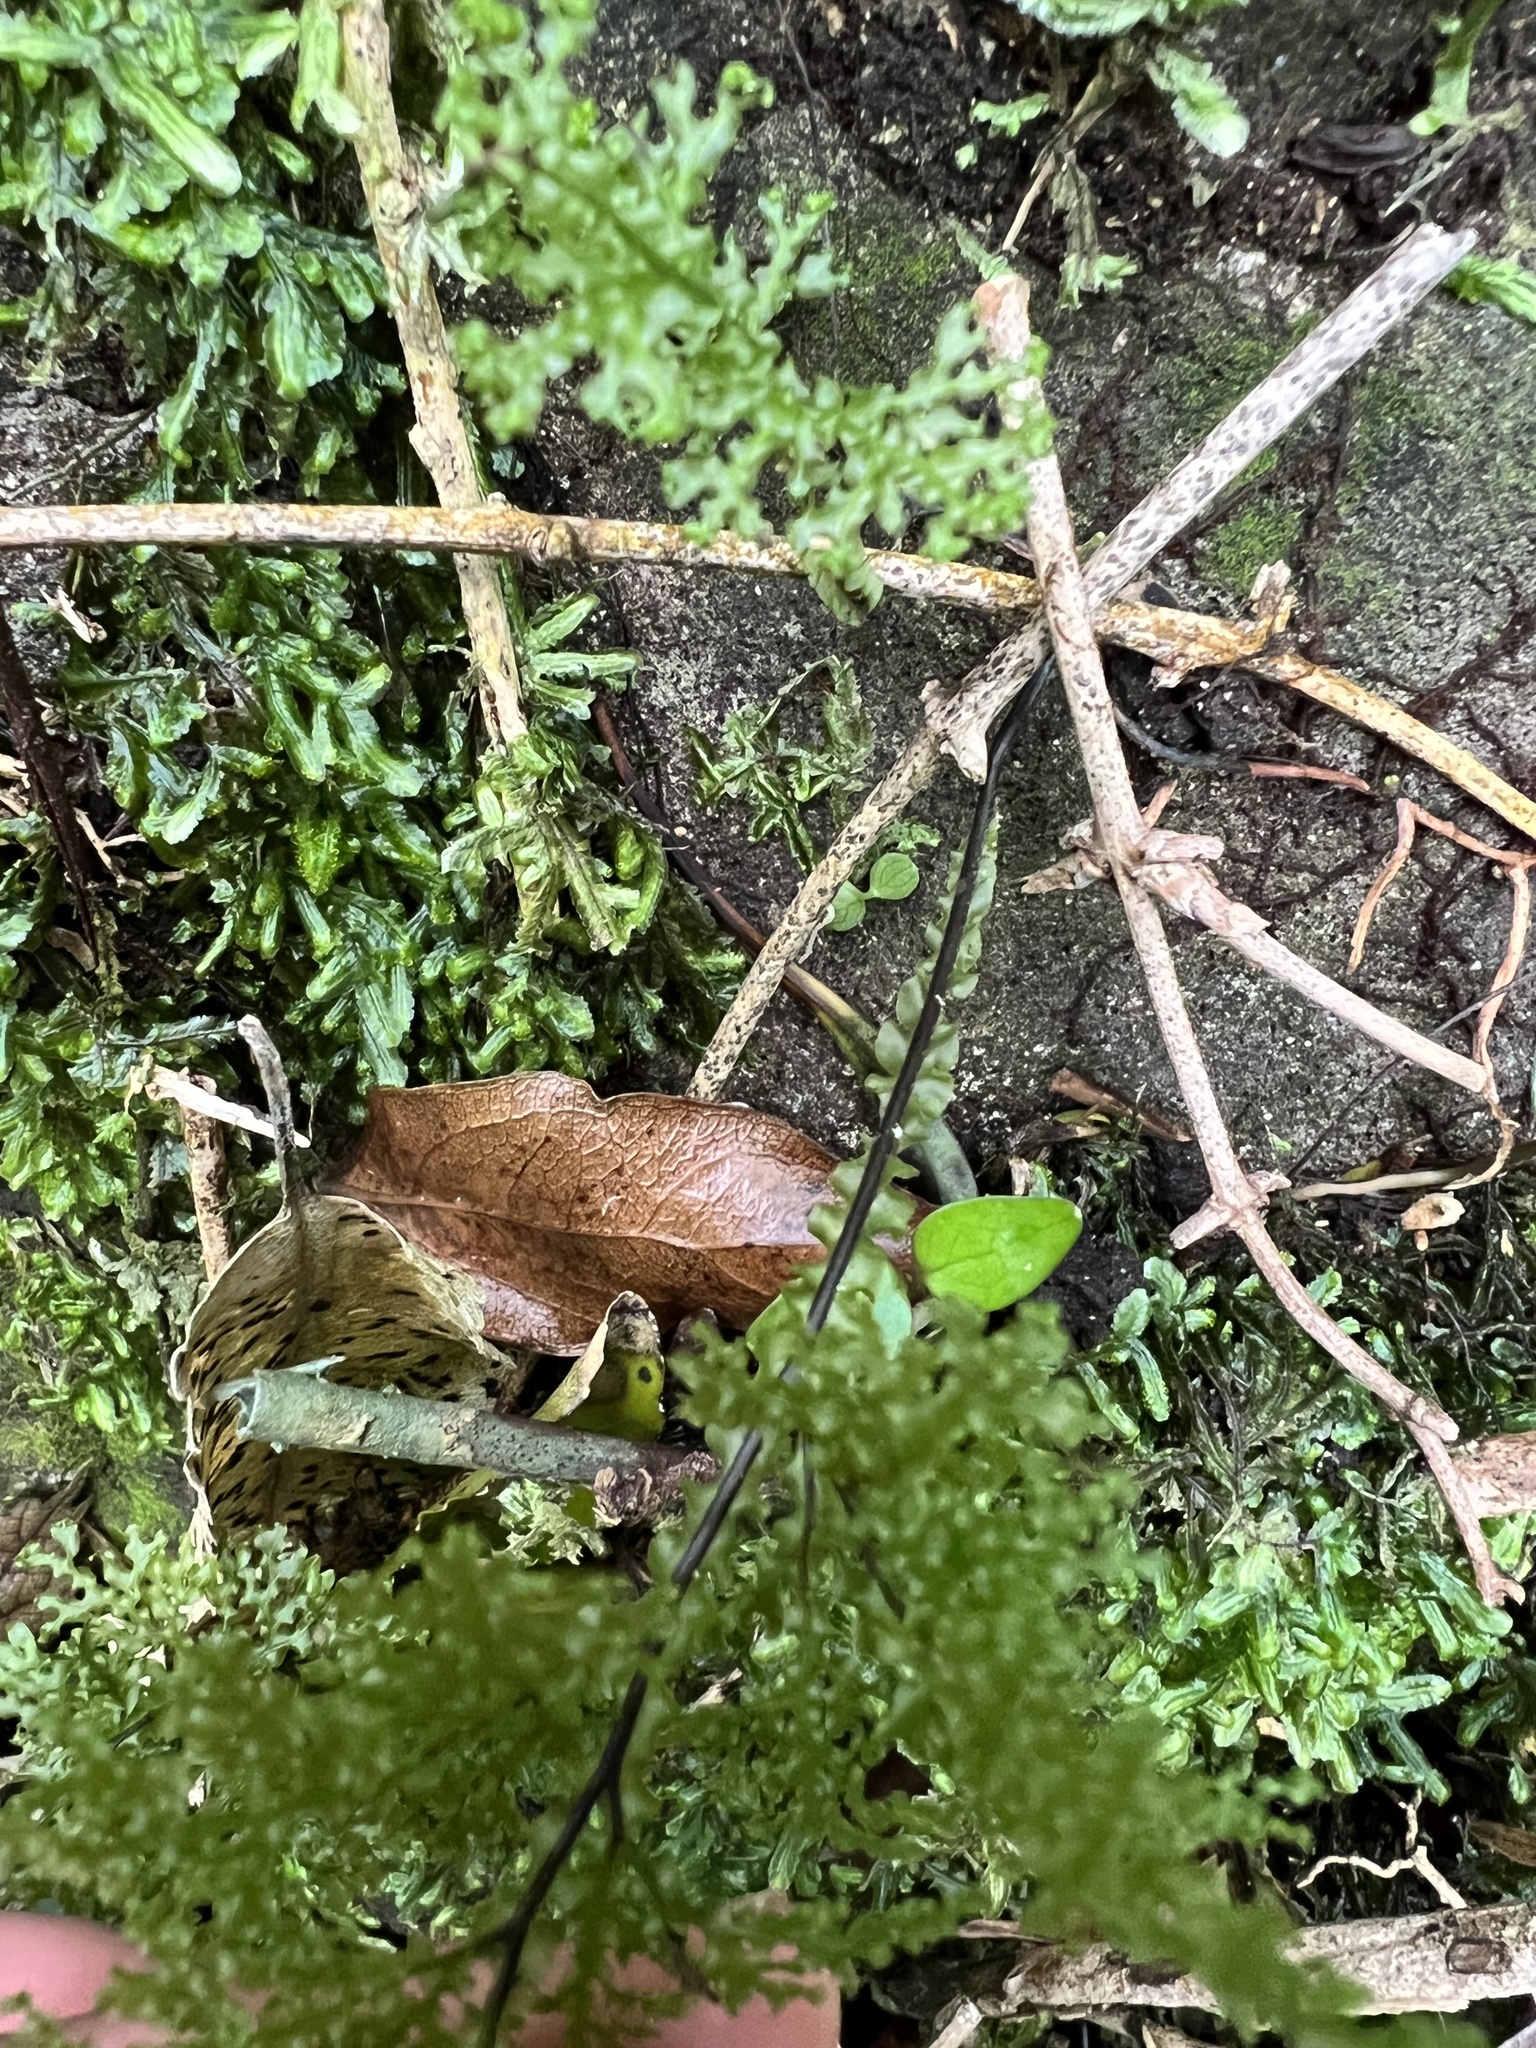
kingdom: Plantae
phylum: Tracheophyta
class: Polypodiopsida
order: Hymenophyllales
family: Hymenophyllaceae
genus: Hymenophyllum
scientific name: Hymenophyllum flexuosum
